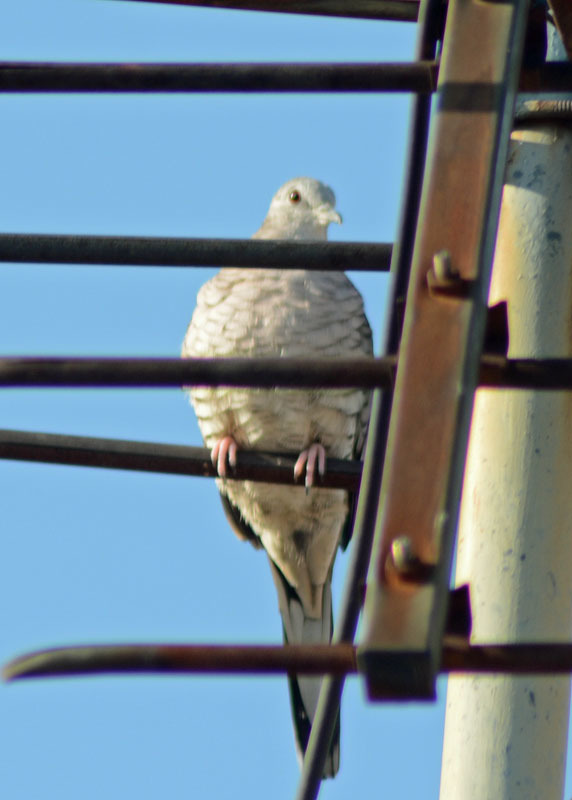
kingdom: Animalia
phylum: Chordata
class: Aves
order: Columbiformes
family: Columbidae
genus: Columbina
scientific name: Columbina inca
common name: Inca dove
